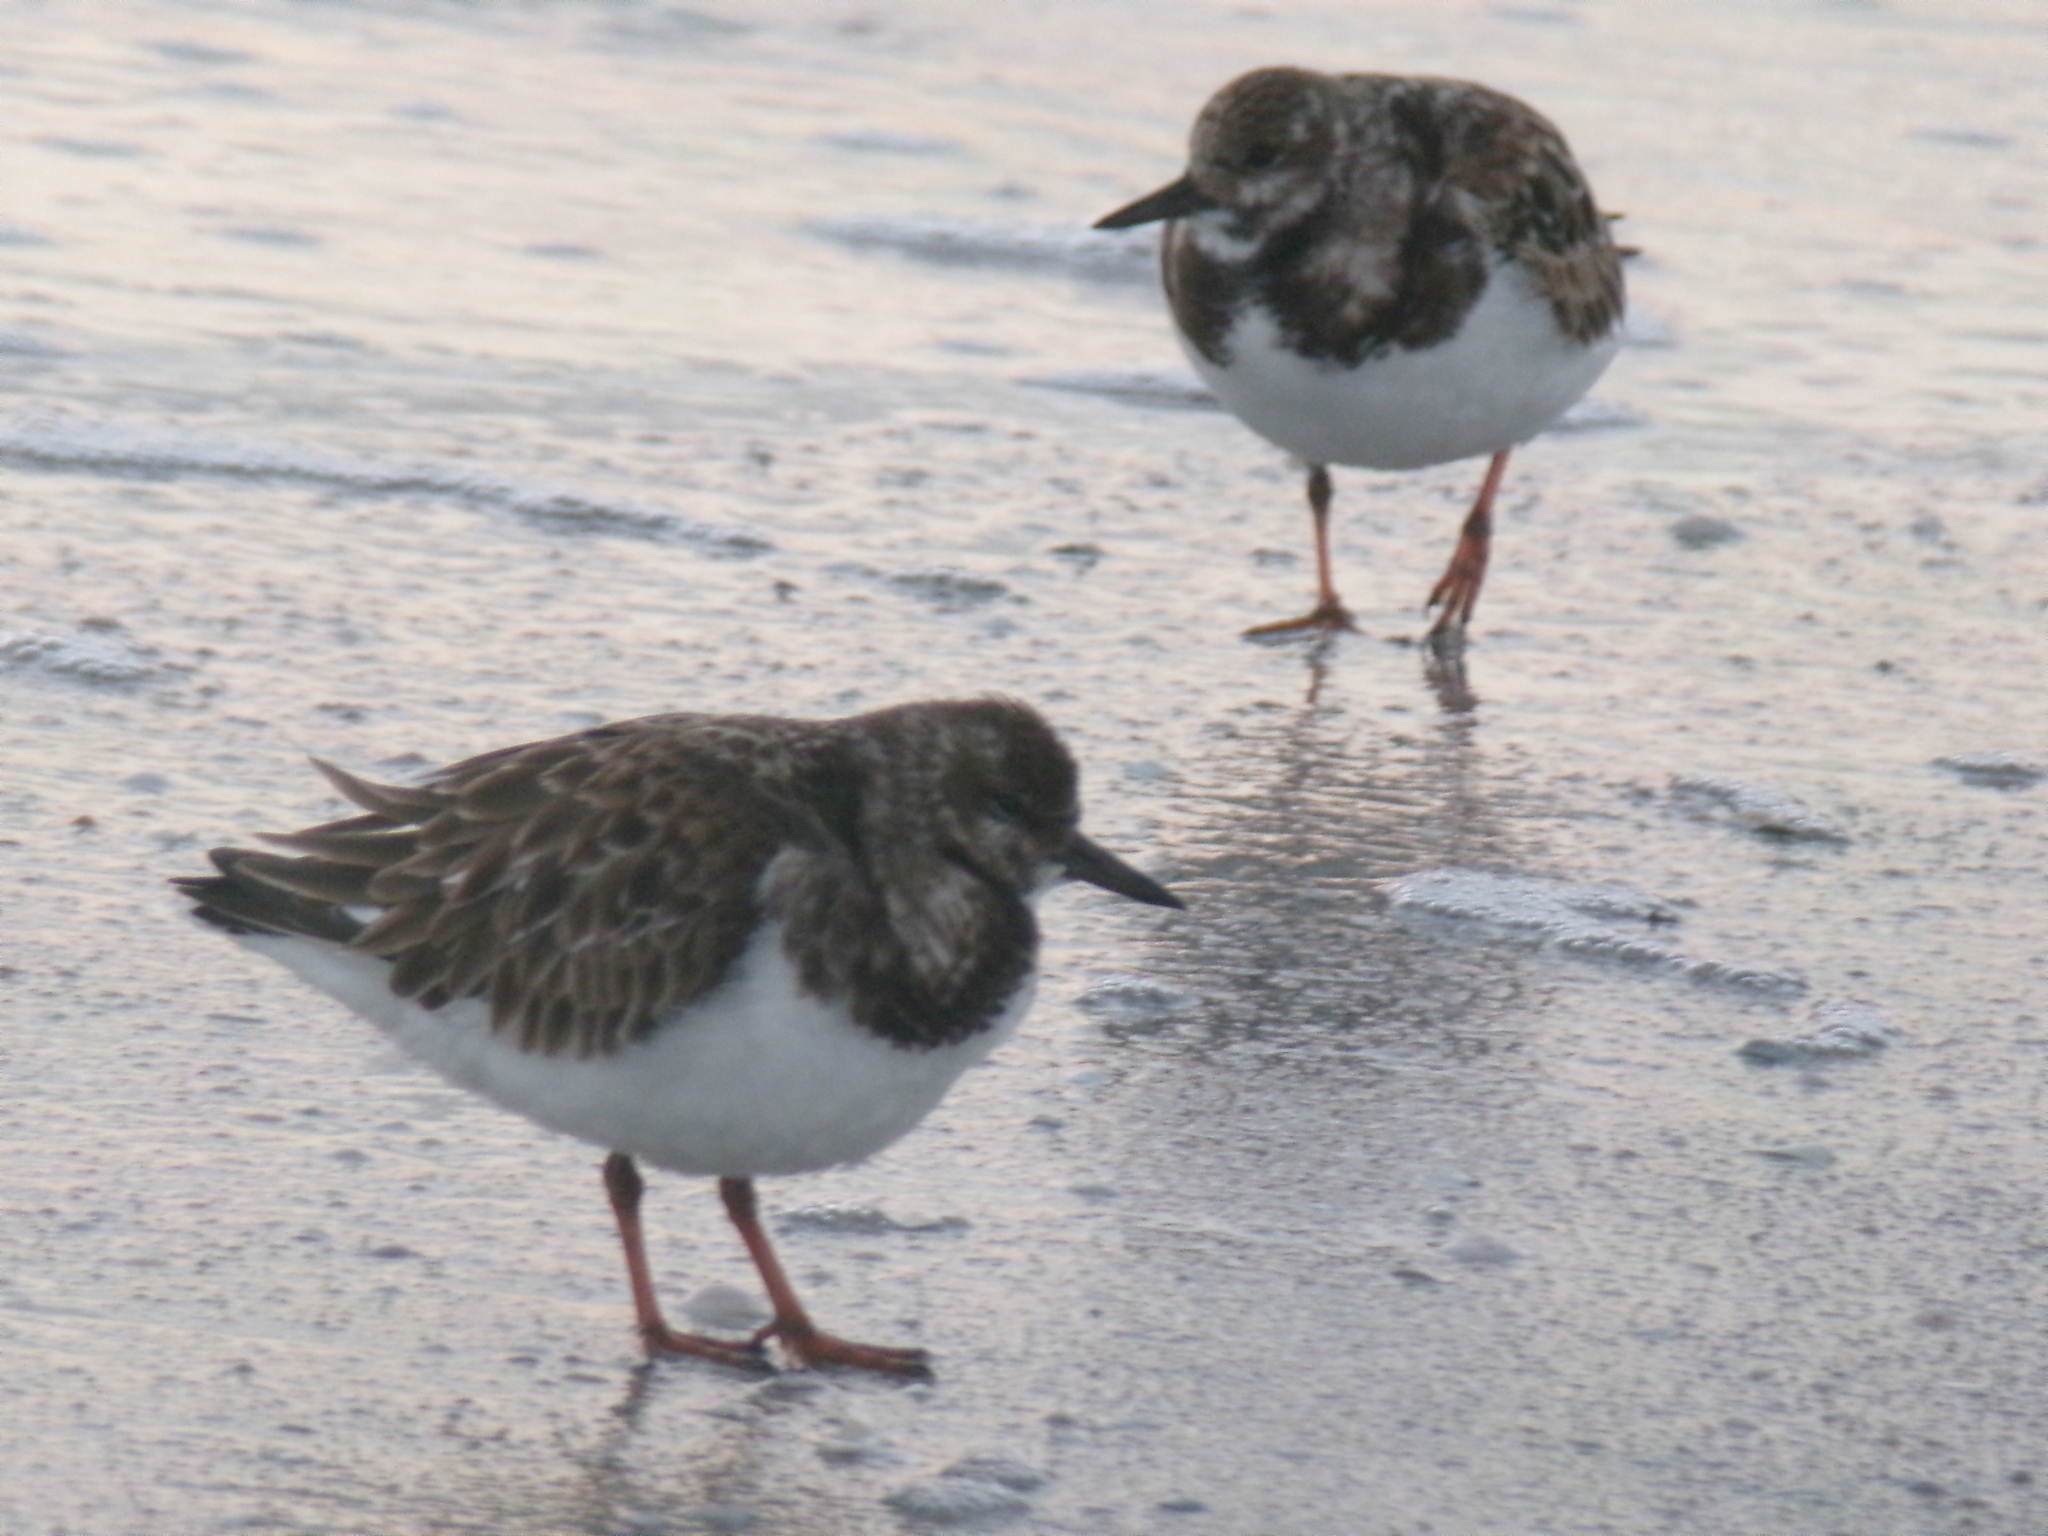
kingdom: Animalia
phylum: Chordata
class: Aves
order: Charadriiformes
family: Scolopacidae
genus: Arenaria
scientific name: Arenaria interpres
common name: Ruddy turnstone
